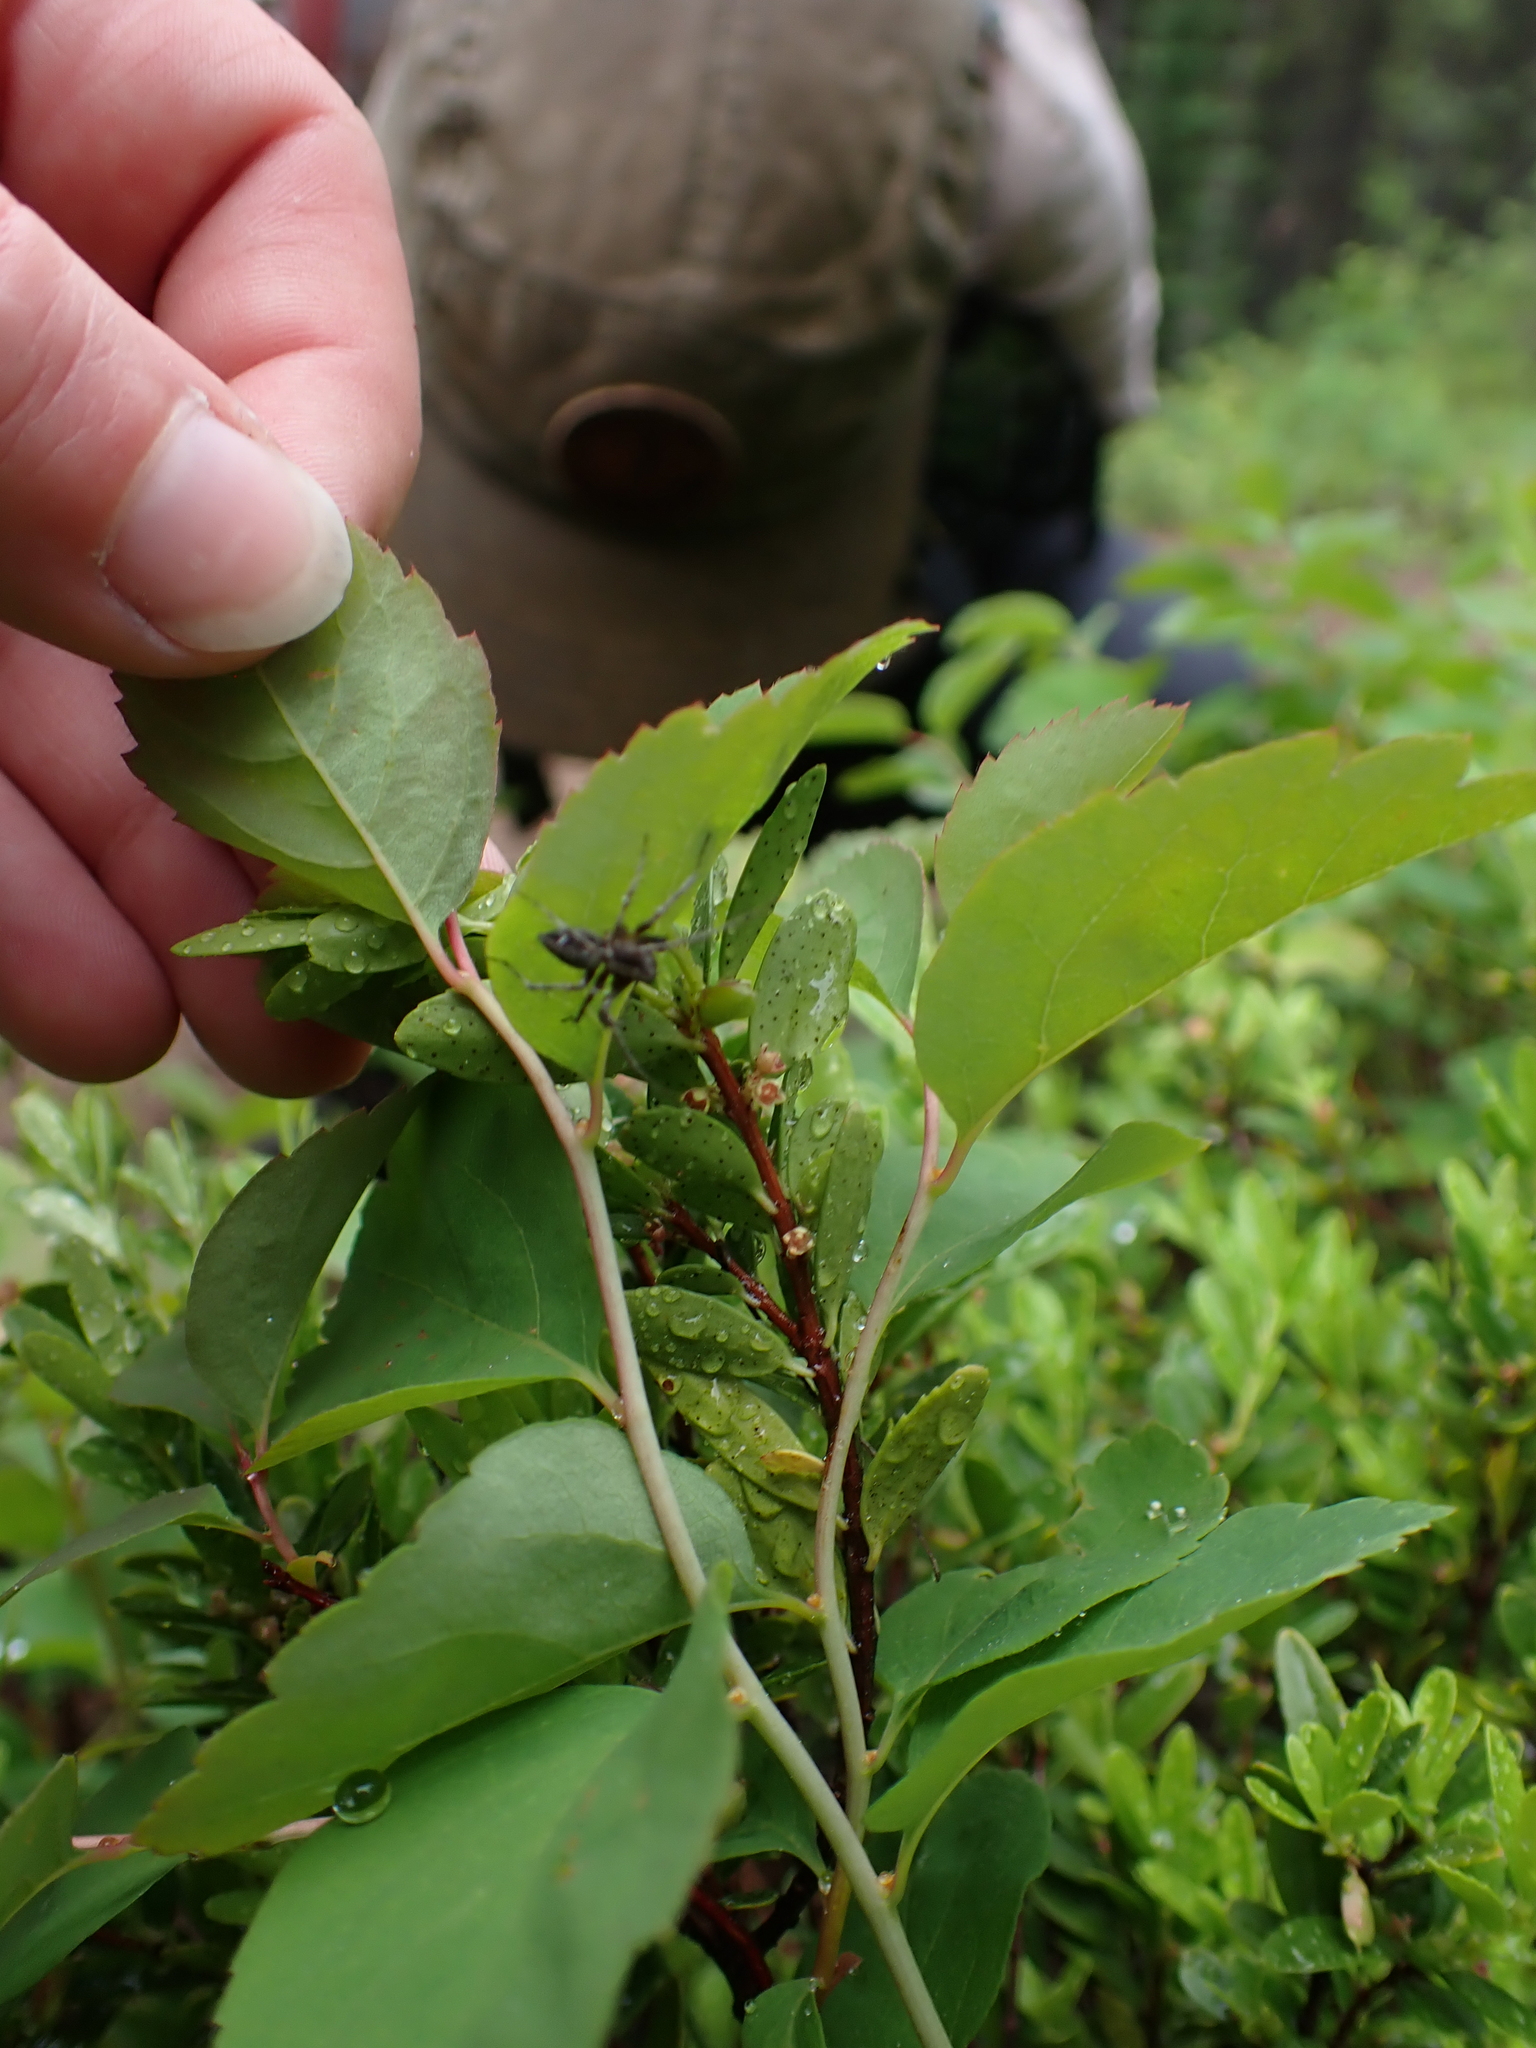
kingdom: Animalia
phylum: Arthropoda
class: Arachnida
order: Araneae
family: Oxyopidae
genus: Oxyopes
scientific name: Oxyopes scalaris
